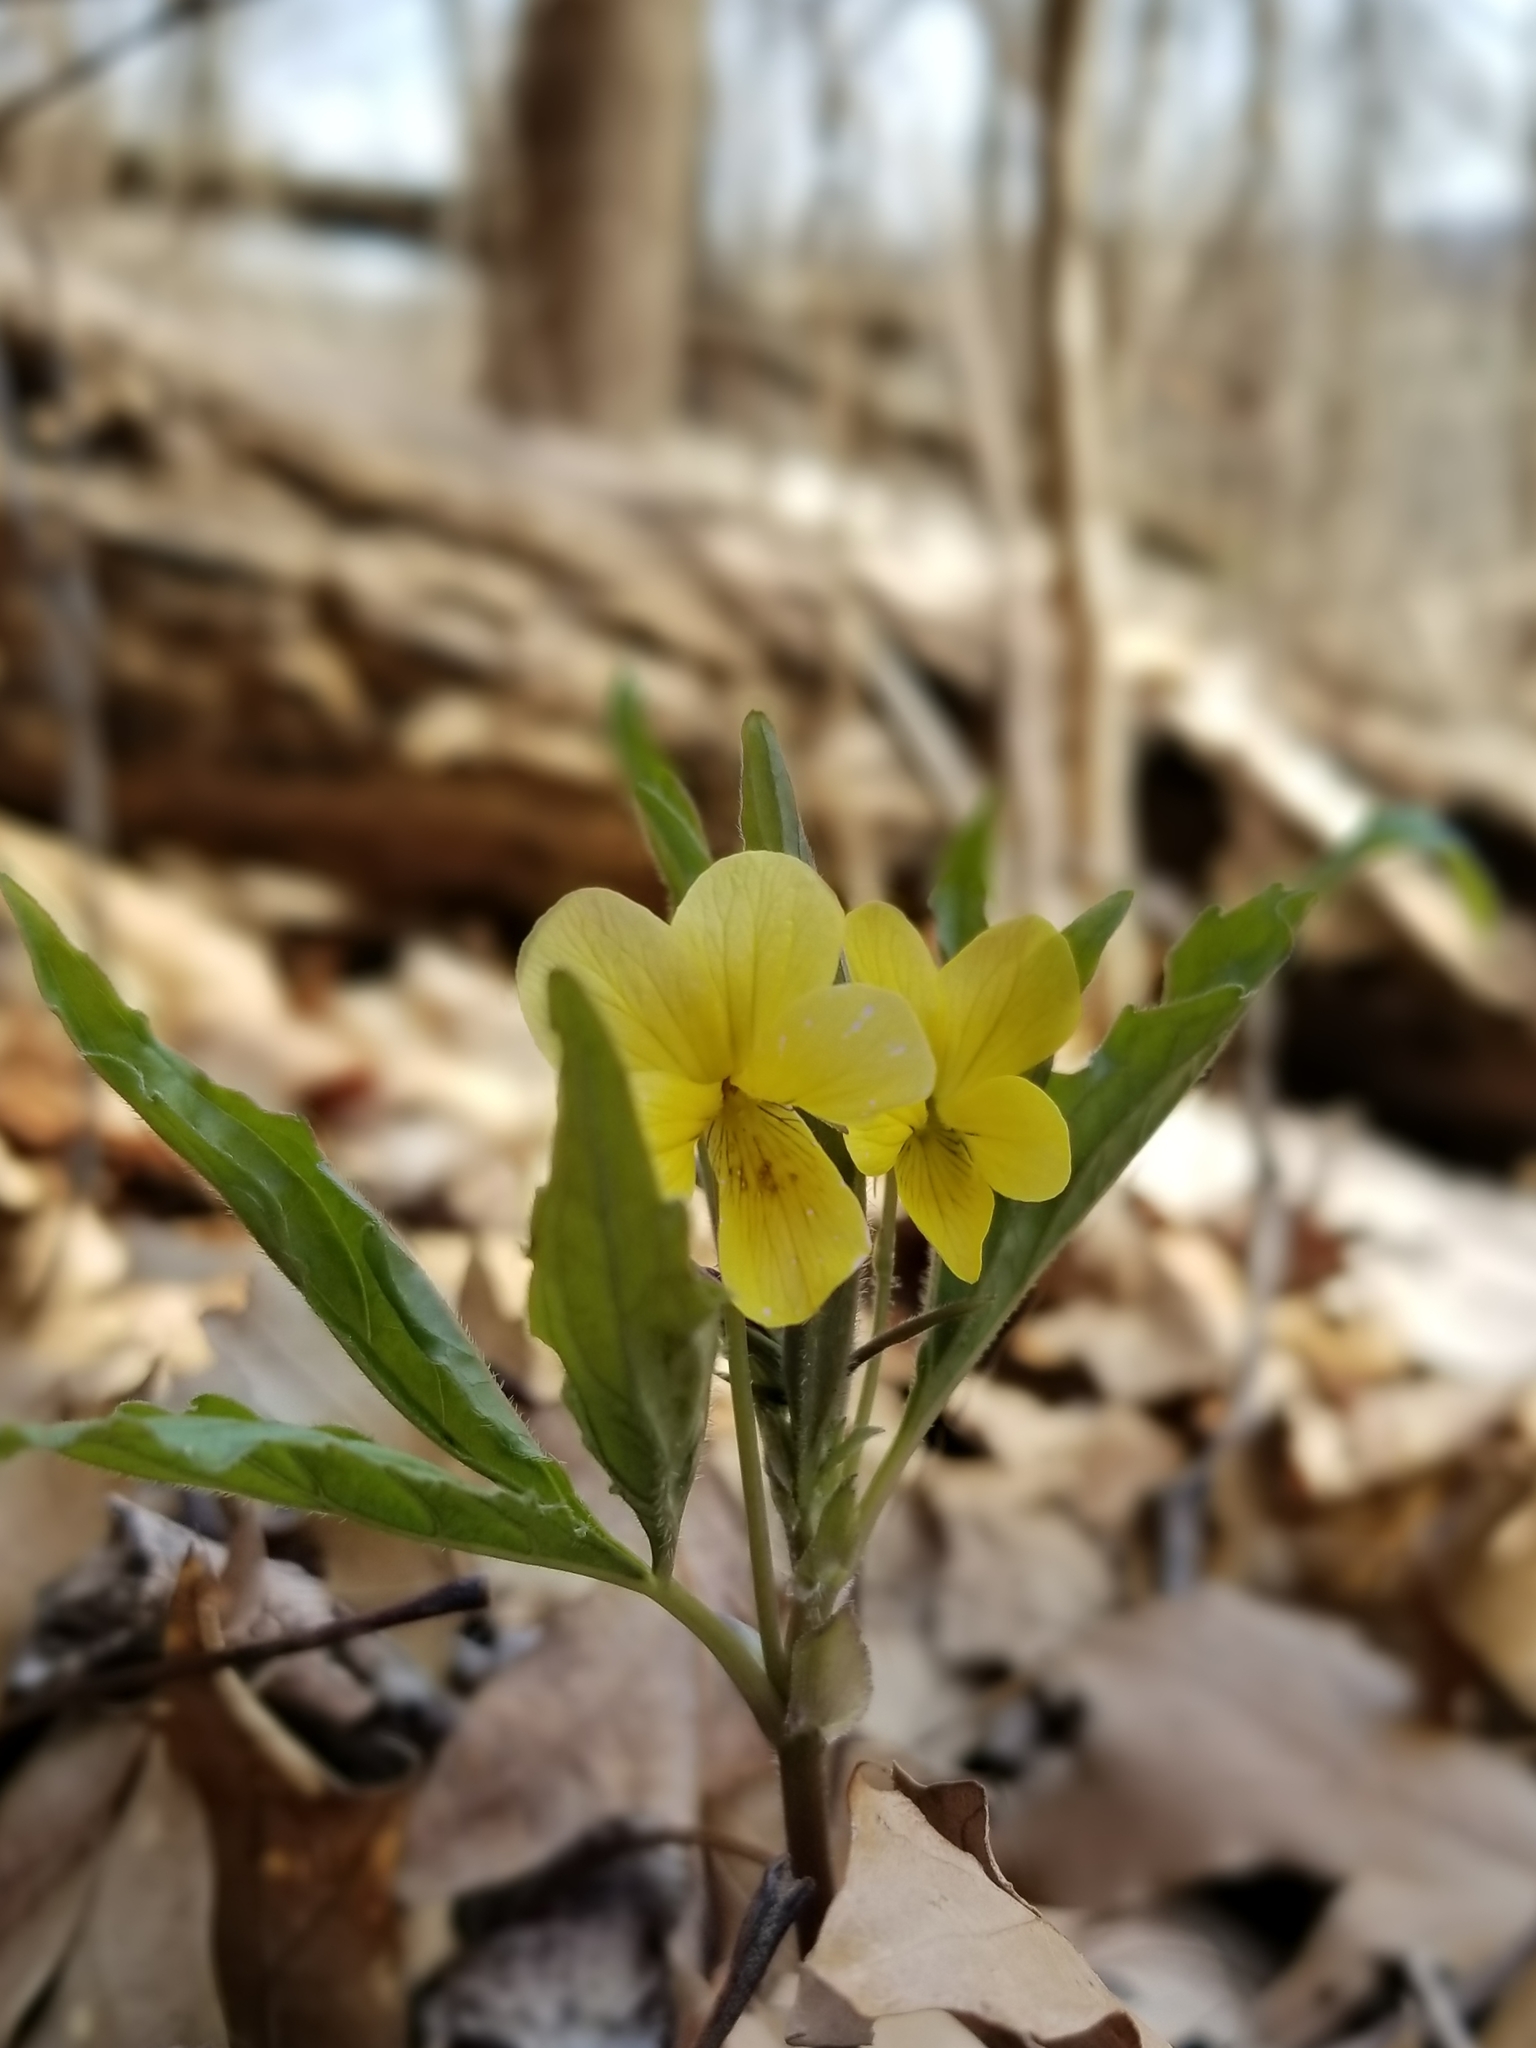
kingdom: Plantae
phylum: Tracheophyta
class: Magnoliopsida
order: Malpighiales
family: Violaceae
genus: Viola
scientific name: Viola tripartita
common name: Three-part violet
